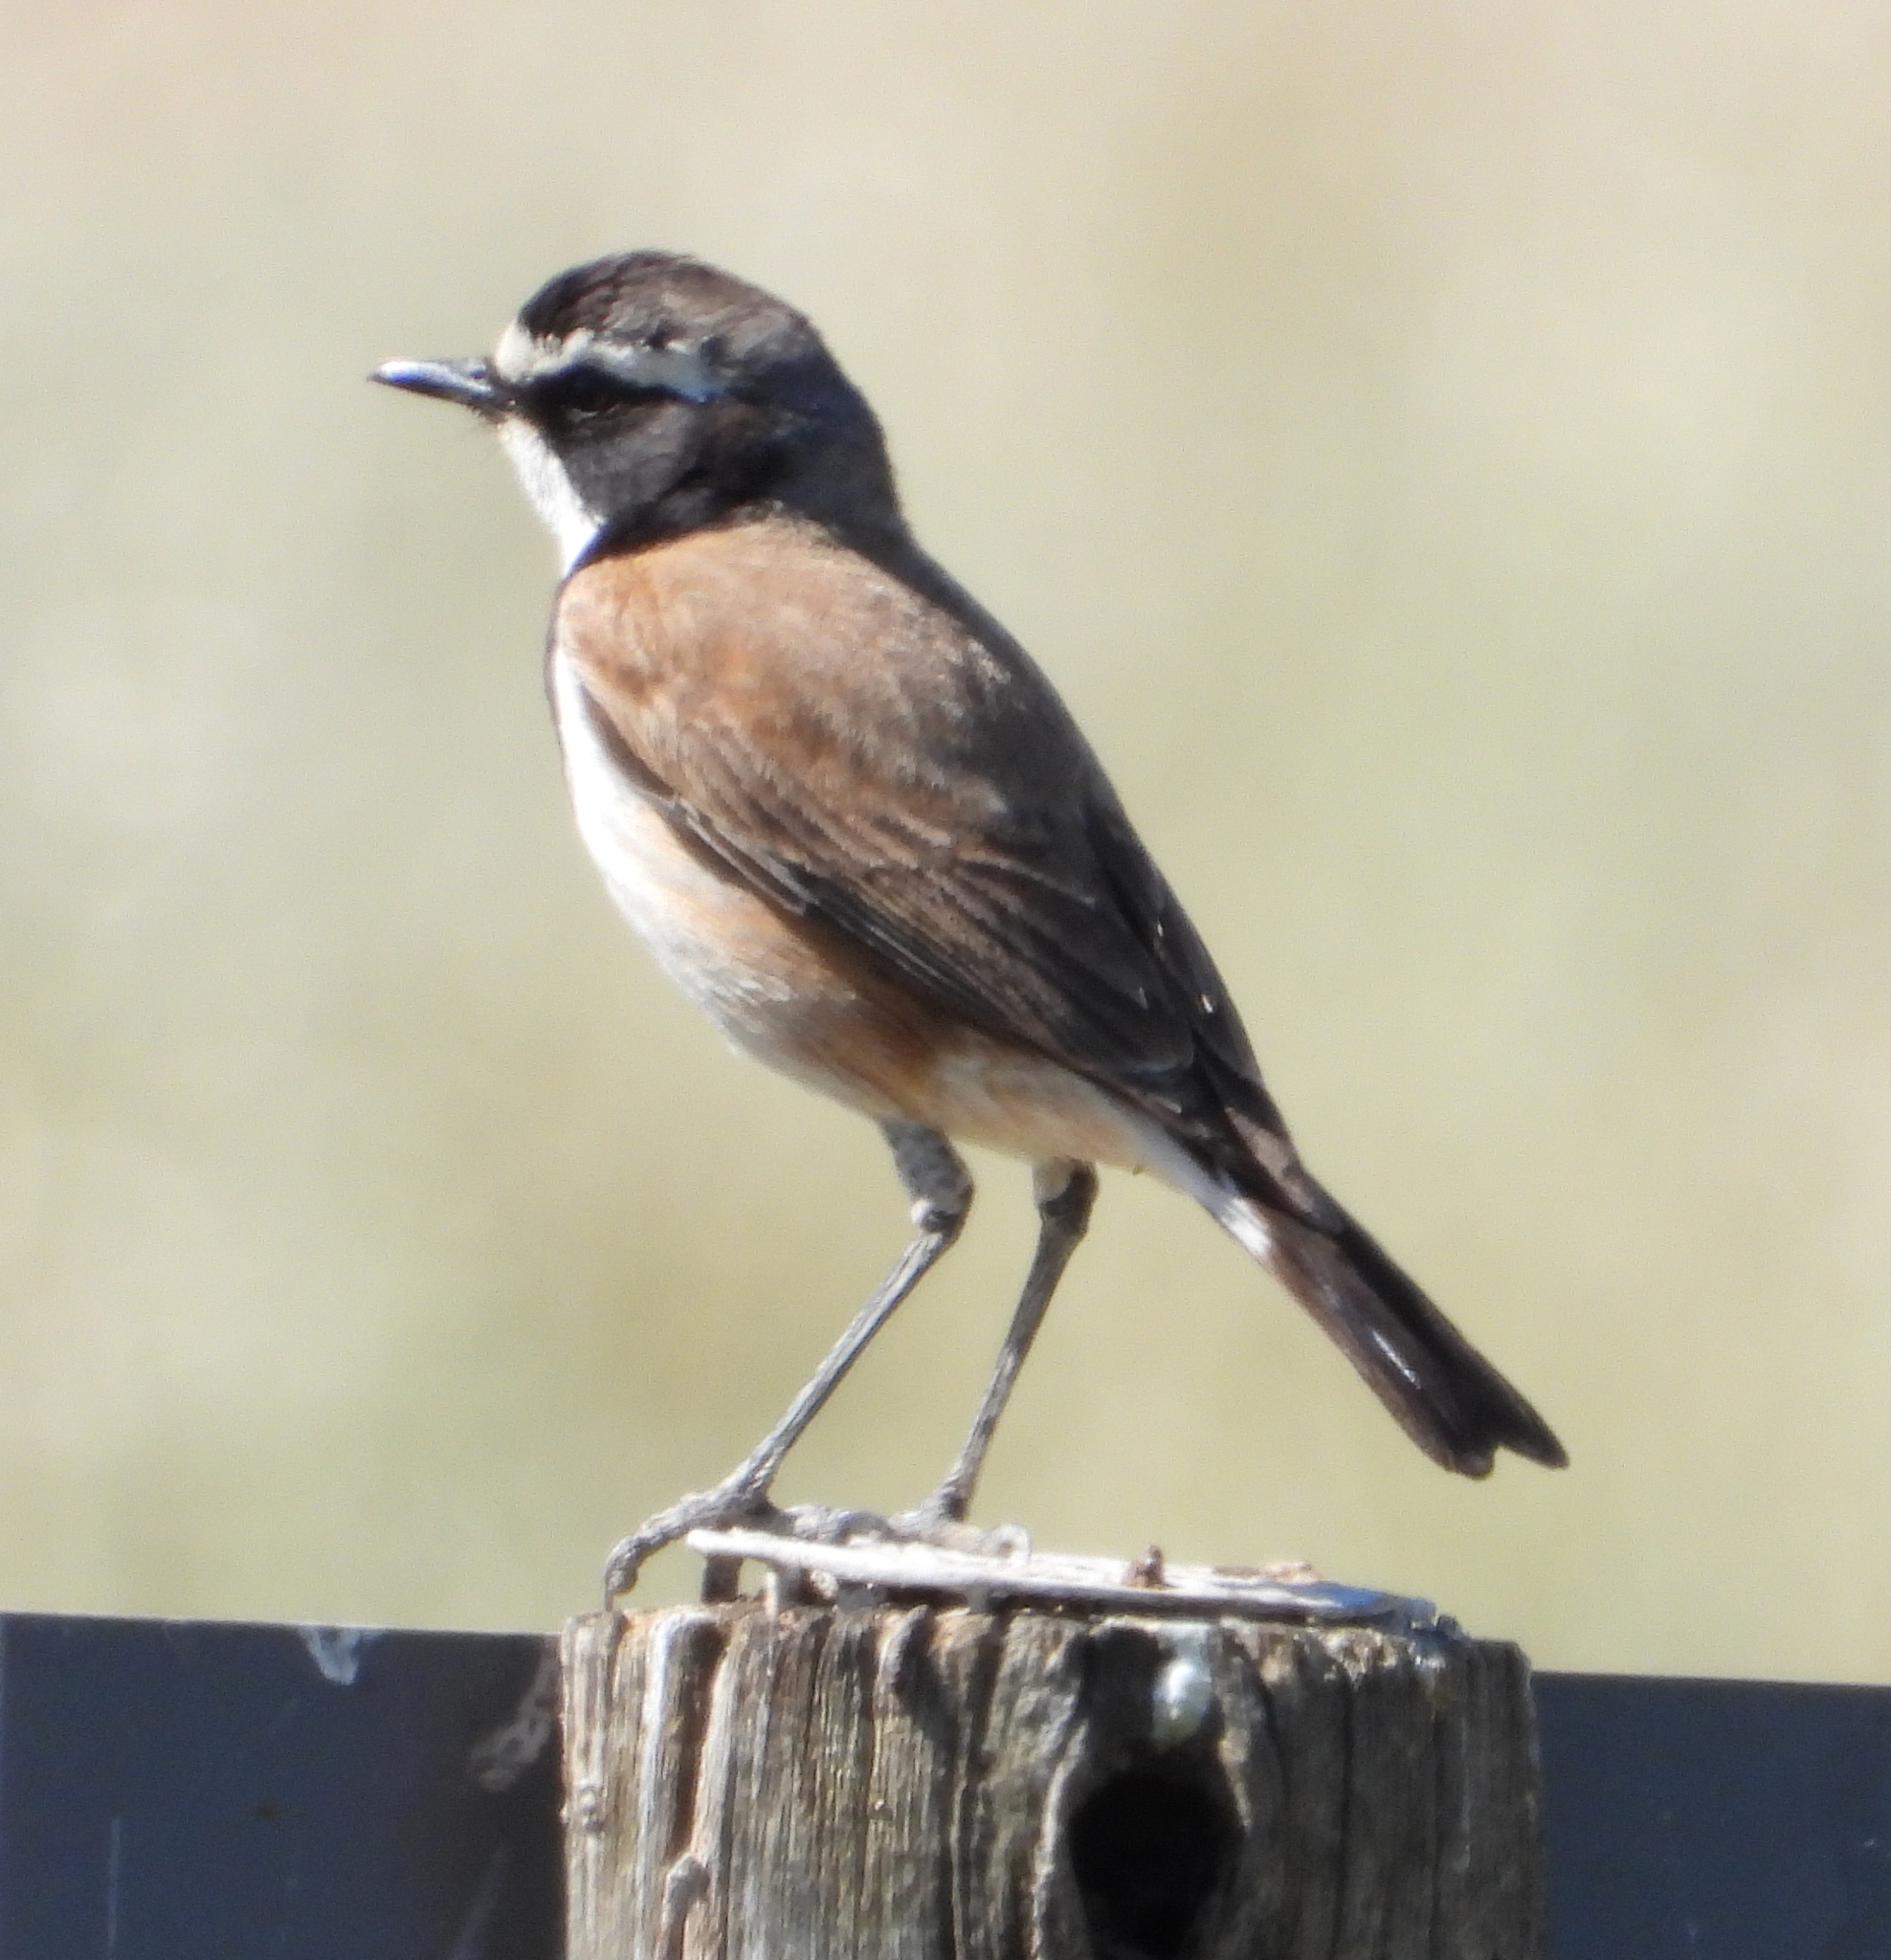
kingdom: Animalia
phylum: Chordata
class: Aves
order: Passeriformes
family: Muscicapidae
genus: Oenanthe
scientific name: Oenanthe pileata
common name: Capped wheatear
